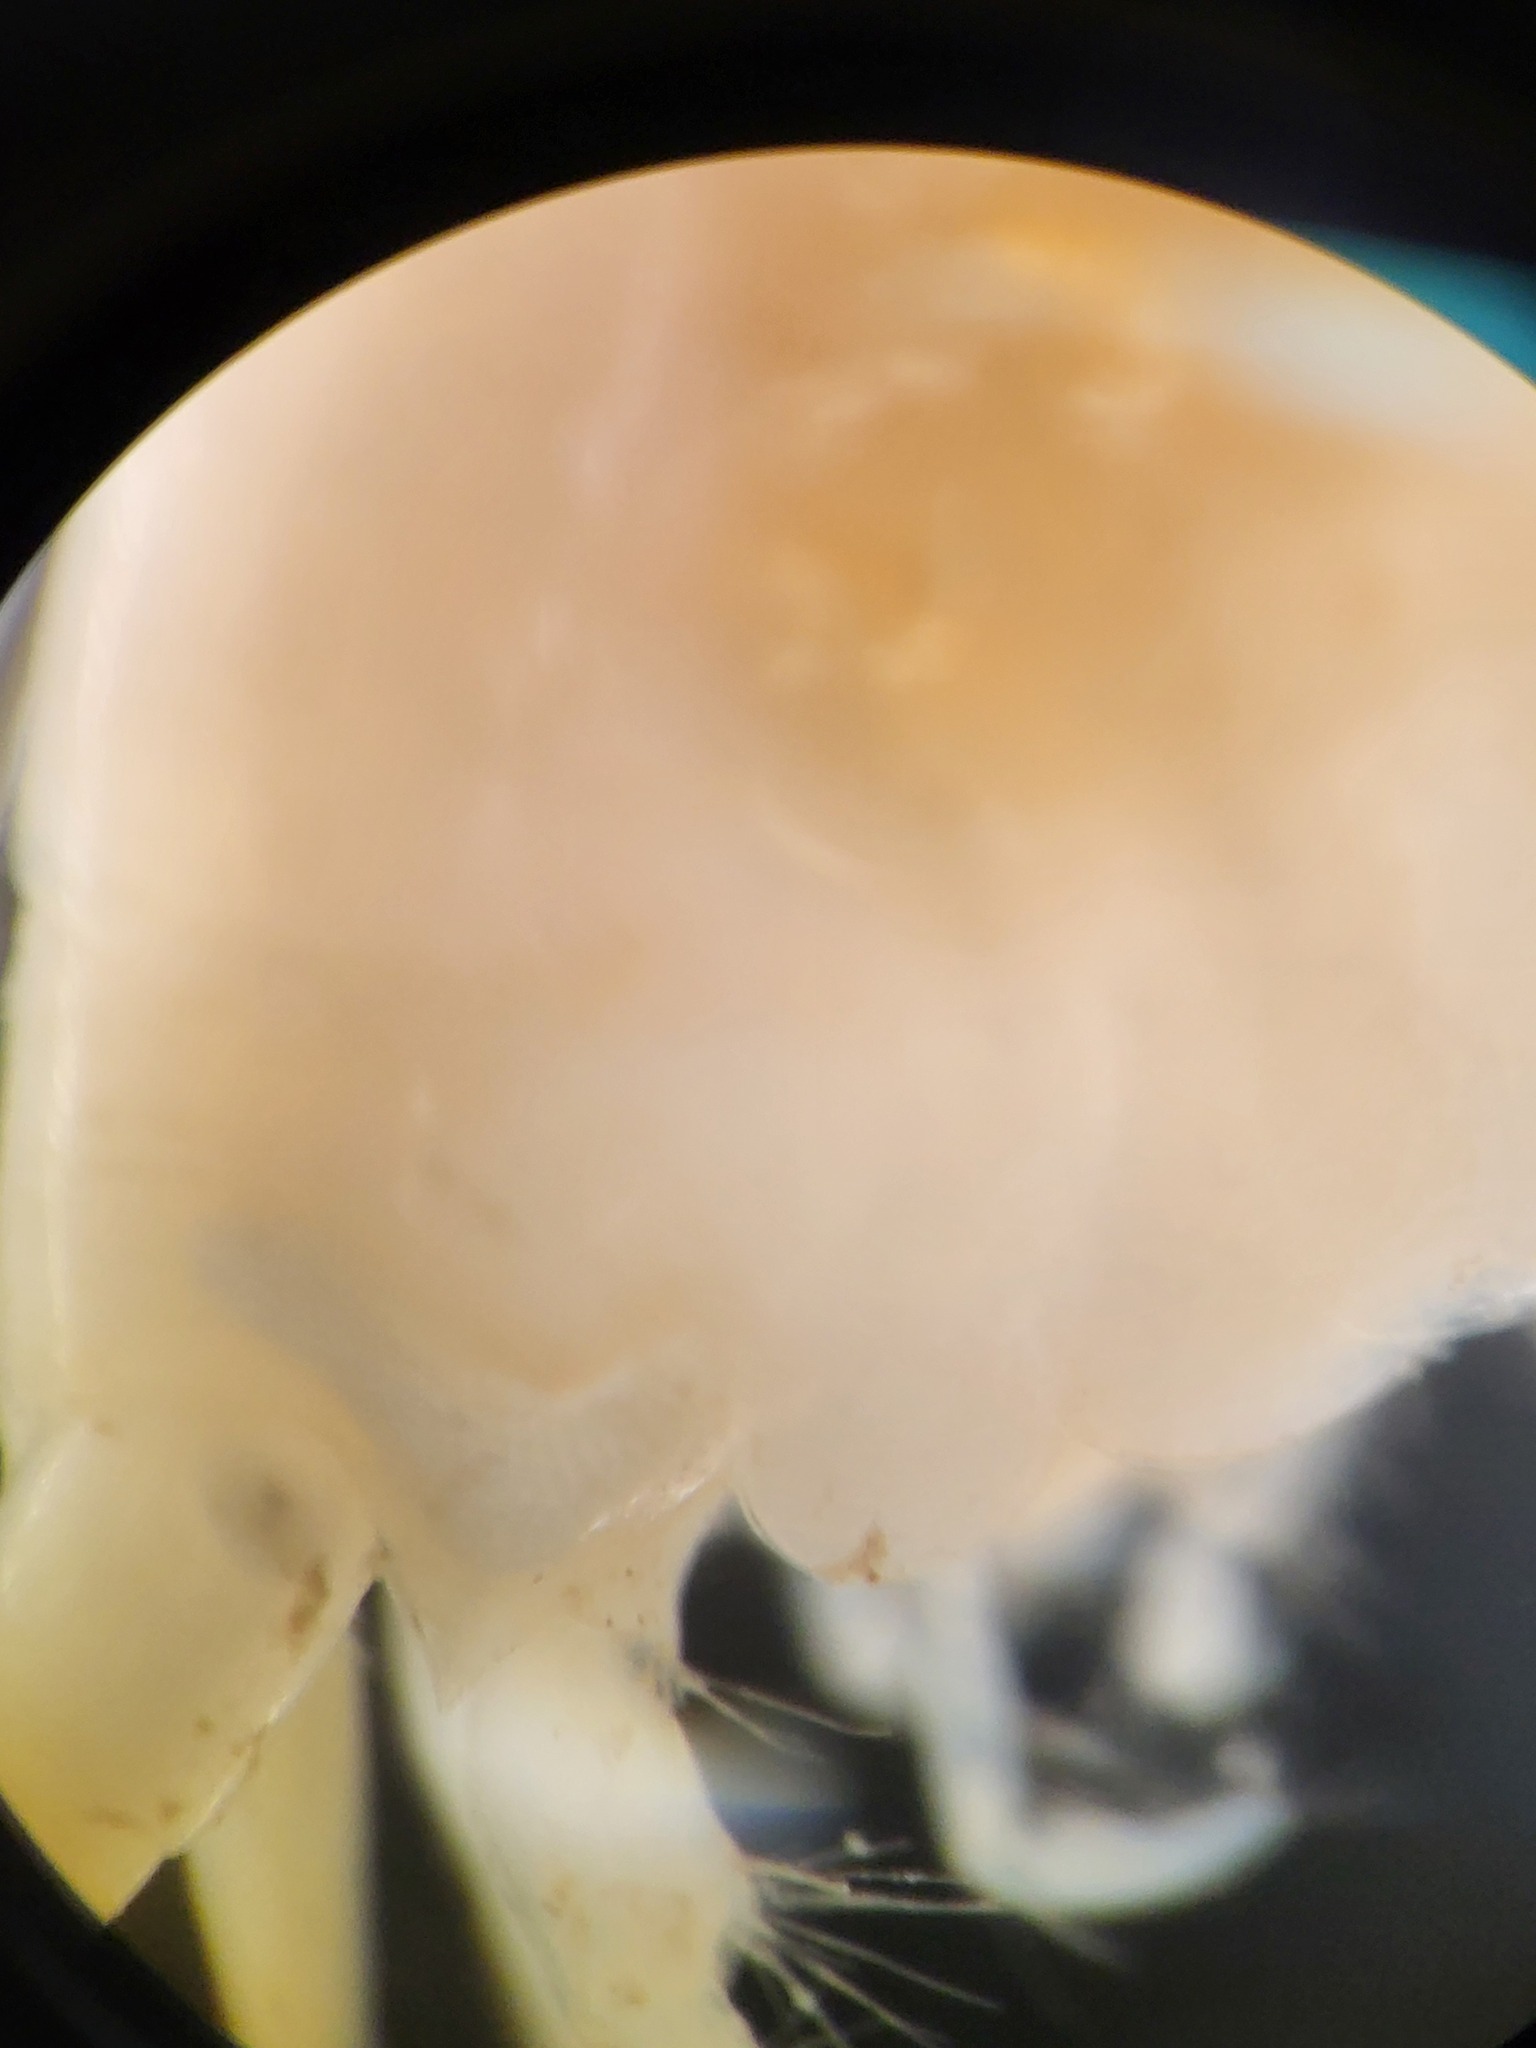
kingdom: Animalia
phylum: Arthropoda
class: Malacostraca
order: Amphipoda
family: Uristidae
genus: Tmetonyx
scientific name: Tmetonyx similis
